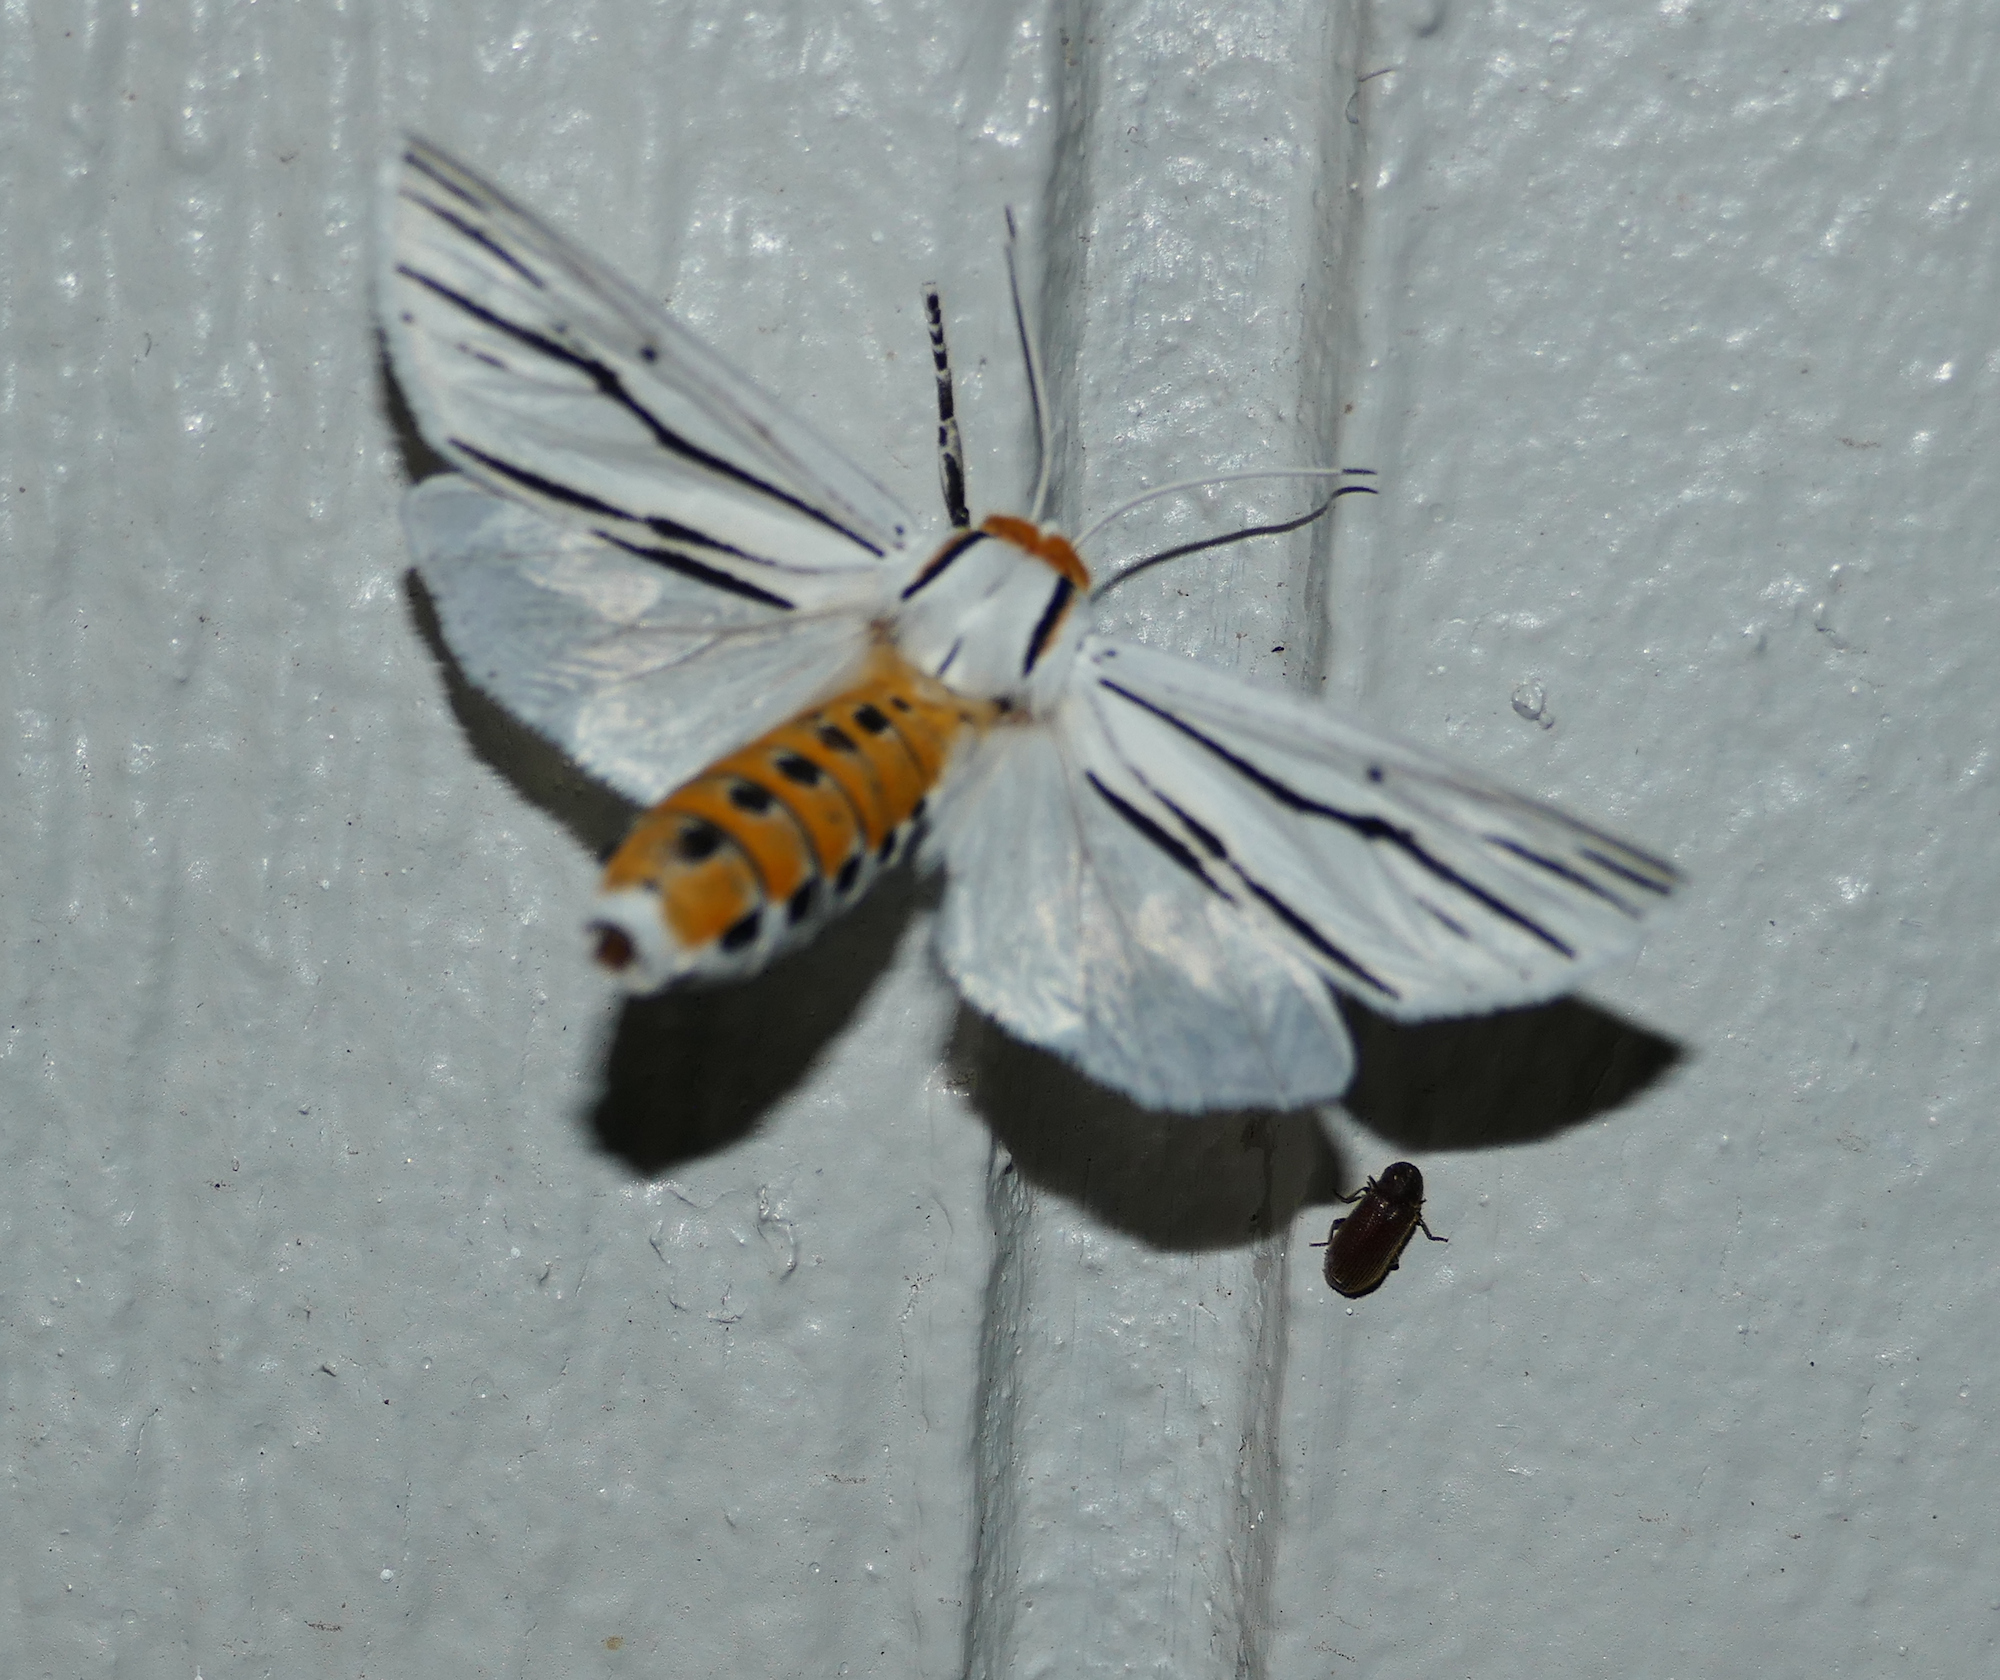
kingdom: Animalia
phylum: Arthropoda
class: Insecta
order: Lepidoptera
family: Erebidae
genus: Ectypia
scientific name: Ectypia clio
